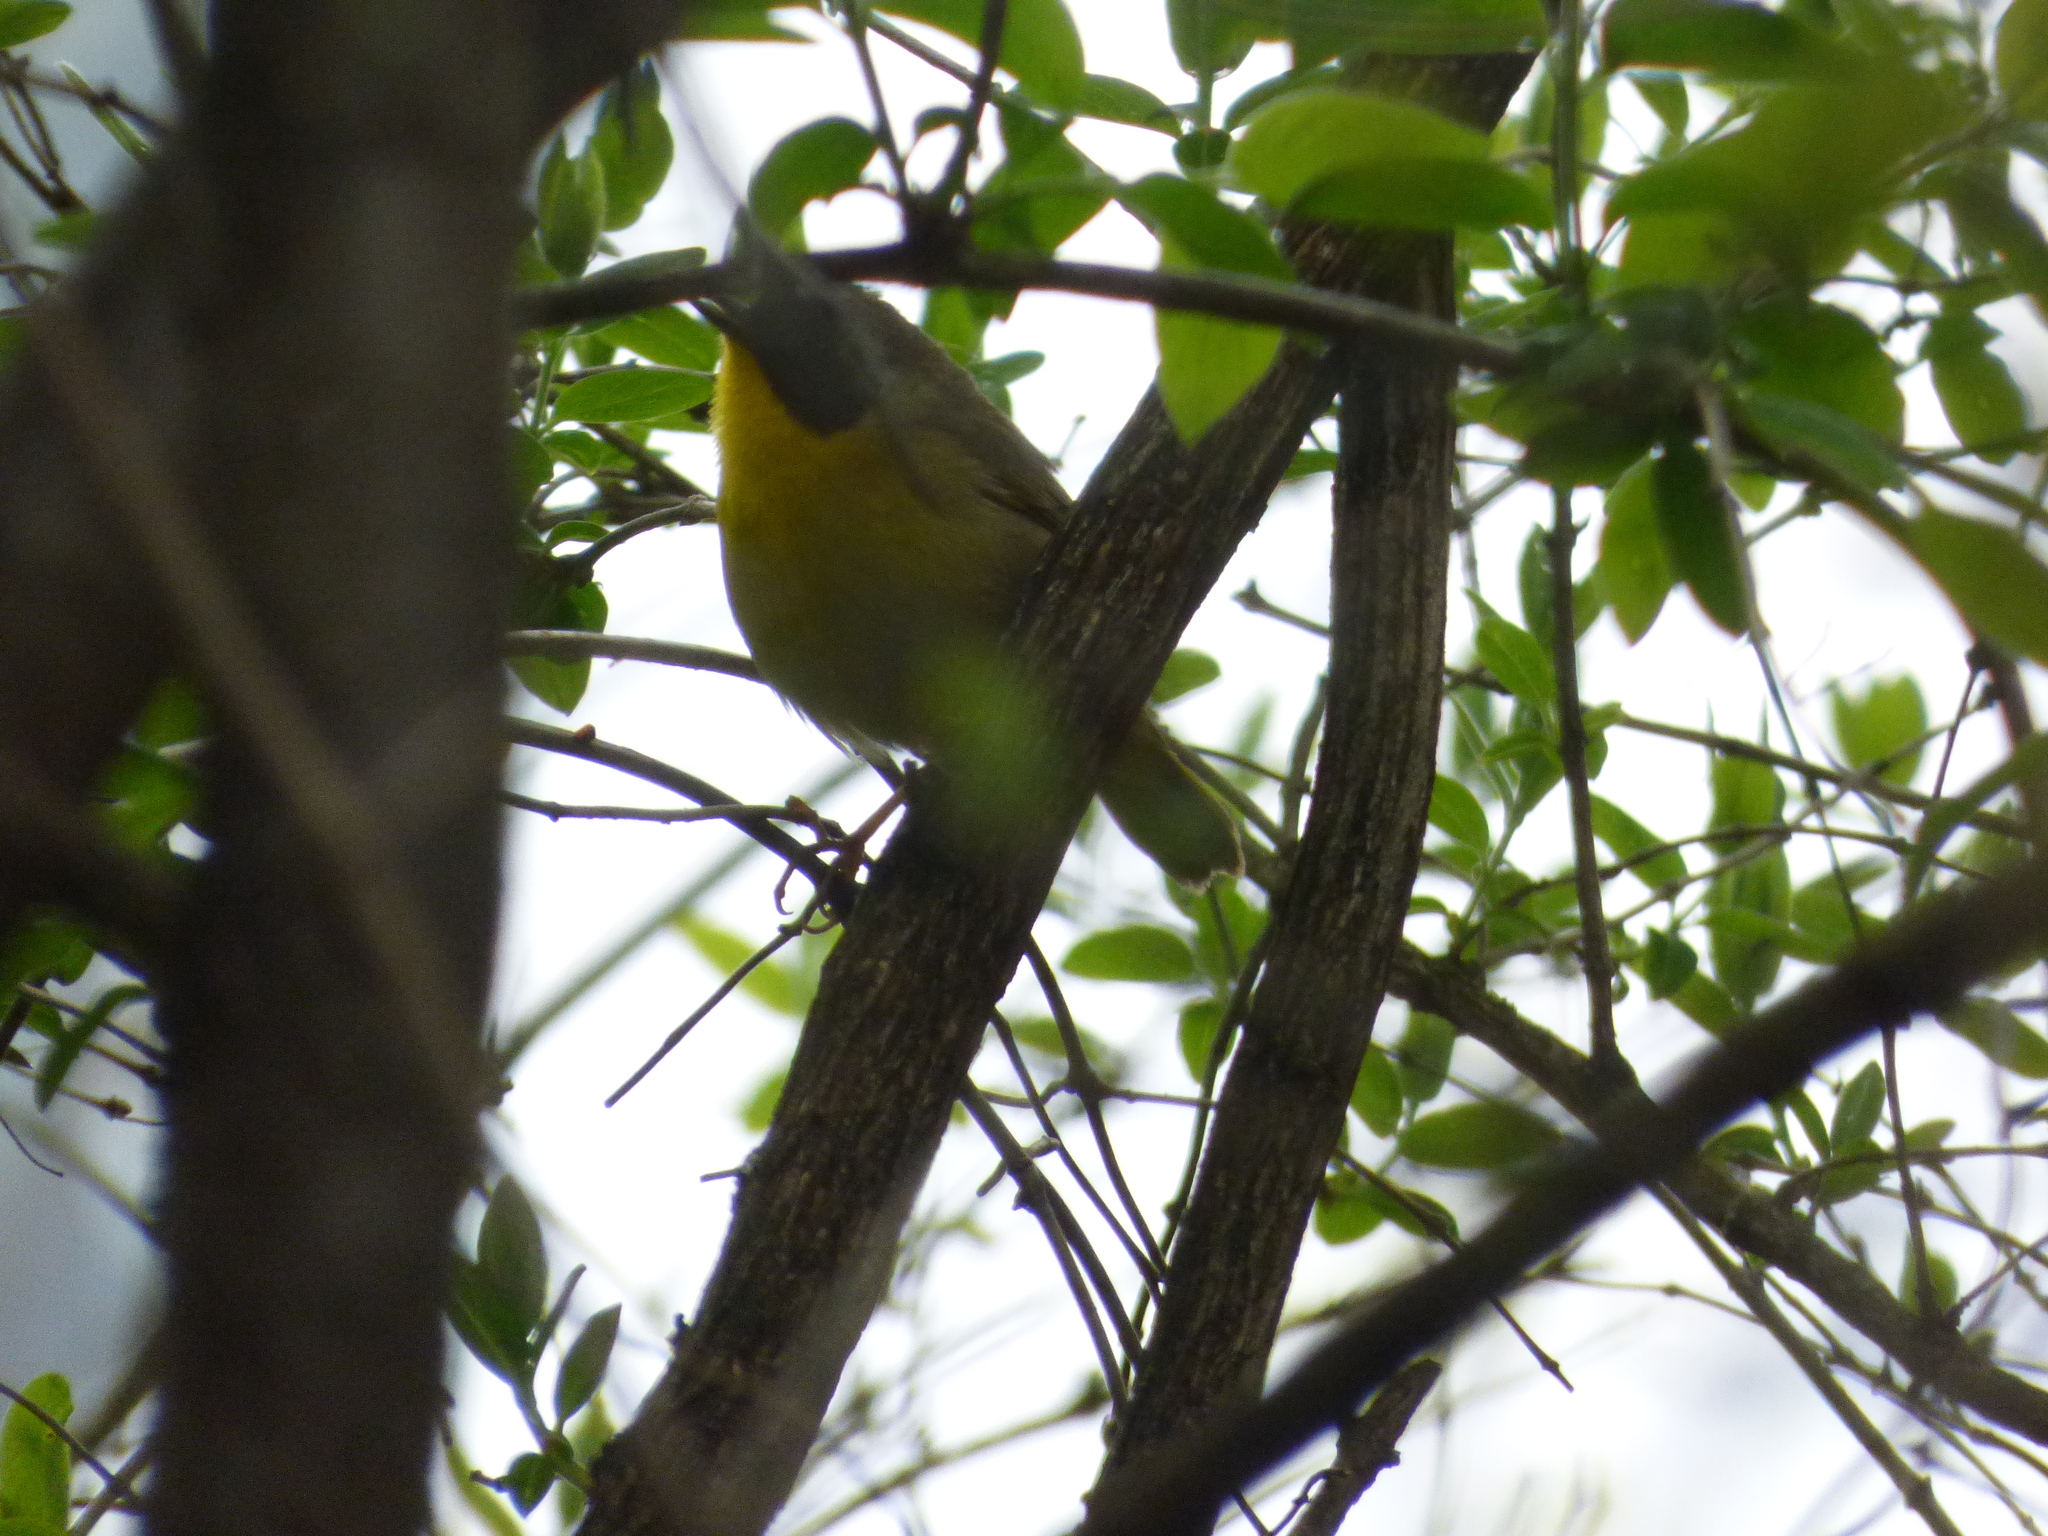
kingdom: Animalia
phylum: Chordata
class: Aves
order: Passeriformes
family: Parulidae
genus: Geothlypis
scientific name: Geothlypis trichas
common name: Common yellowthroat
